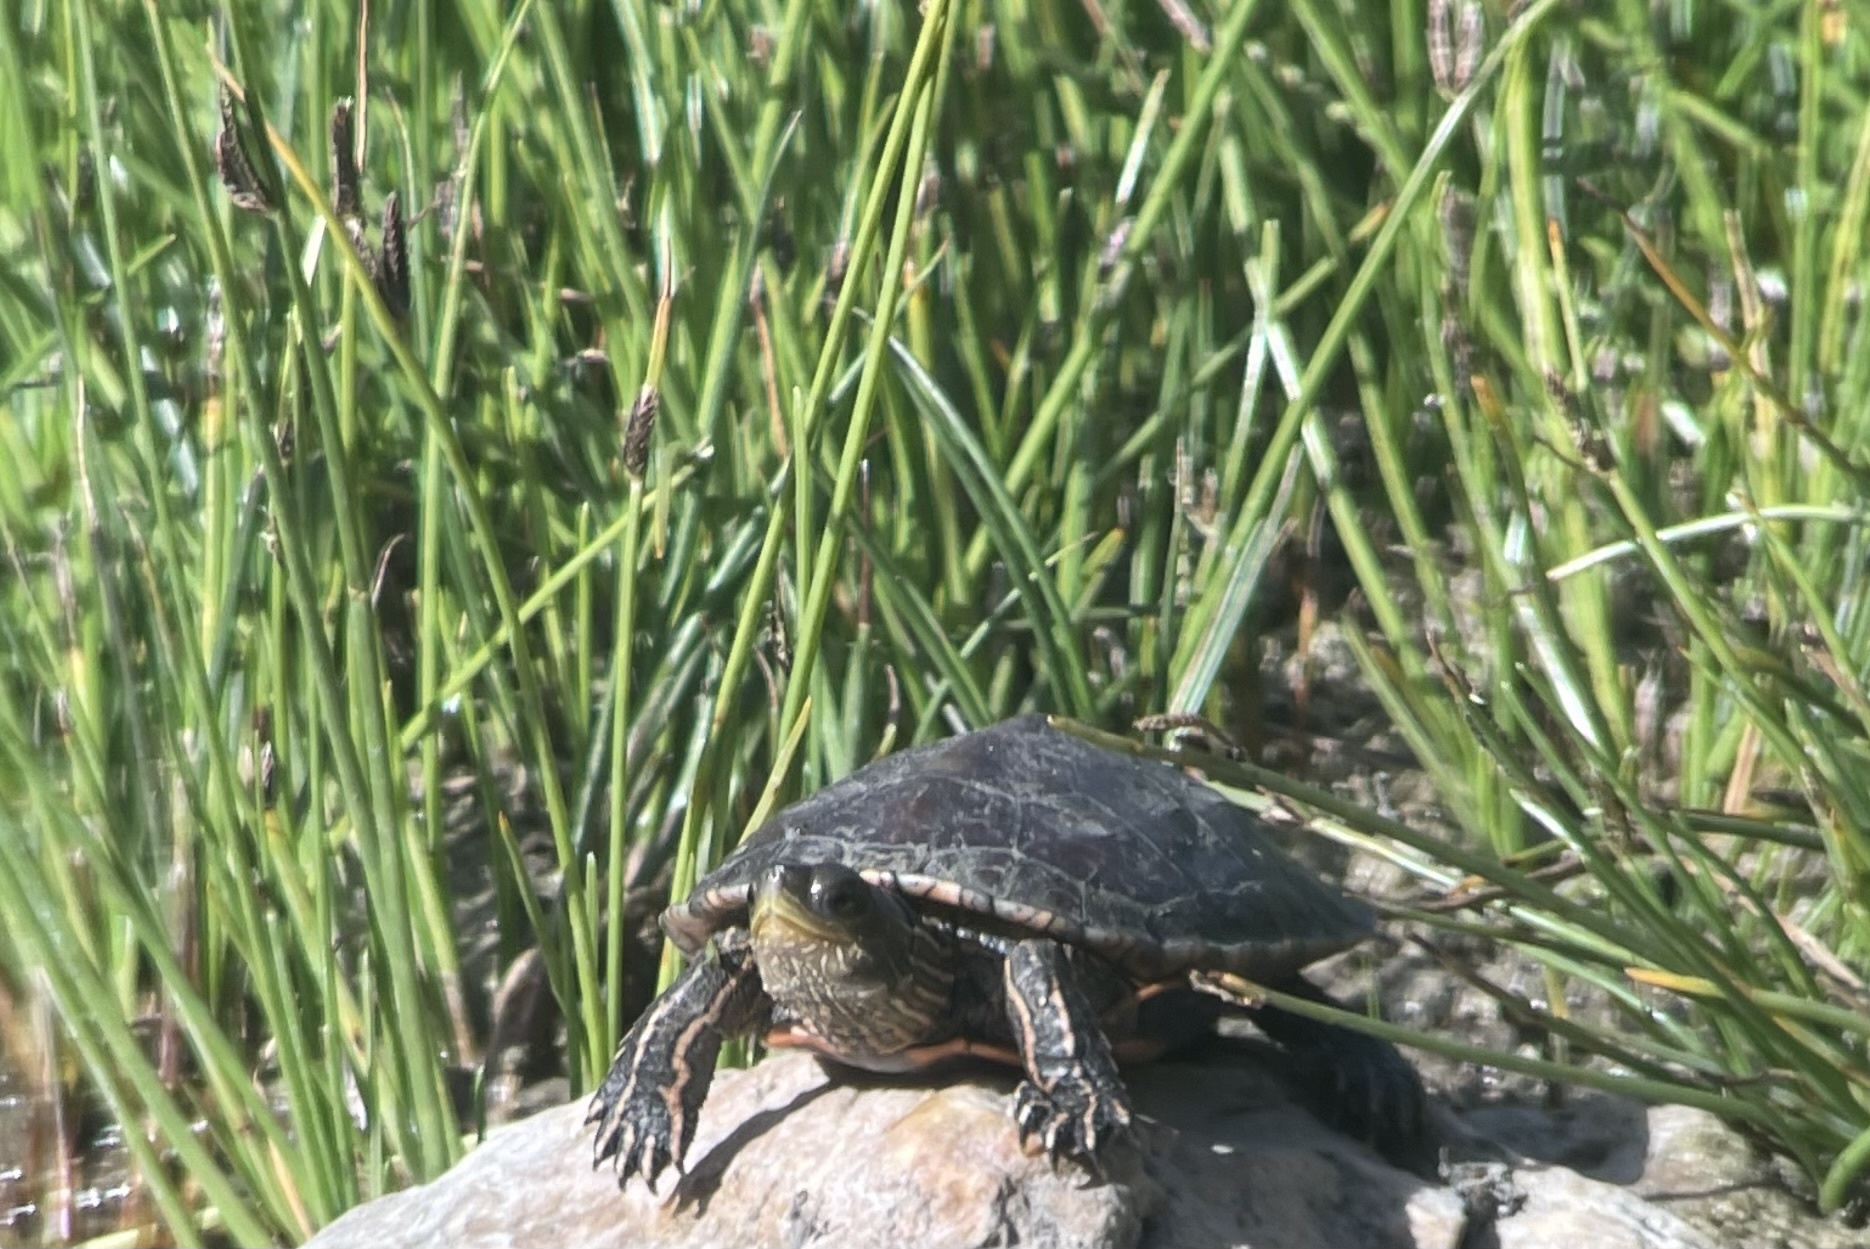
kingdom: Animalia
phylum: Chordata
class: Testudines
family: Geoemydidae
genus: Mauremys
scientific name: Mauremys rivulata
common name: Western caspian turtle
